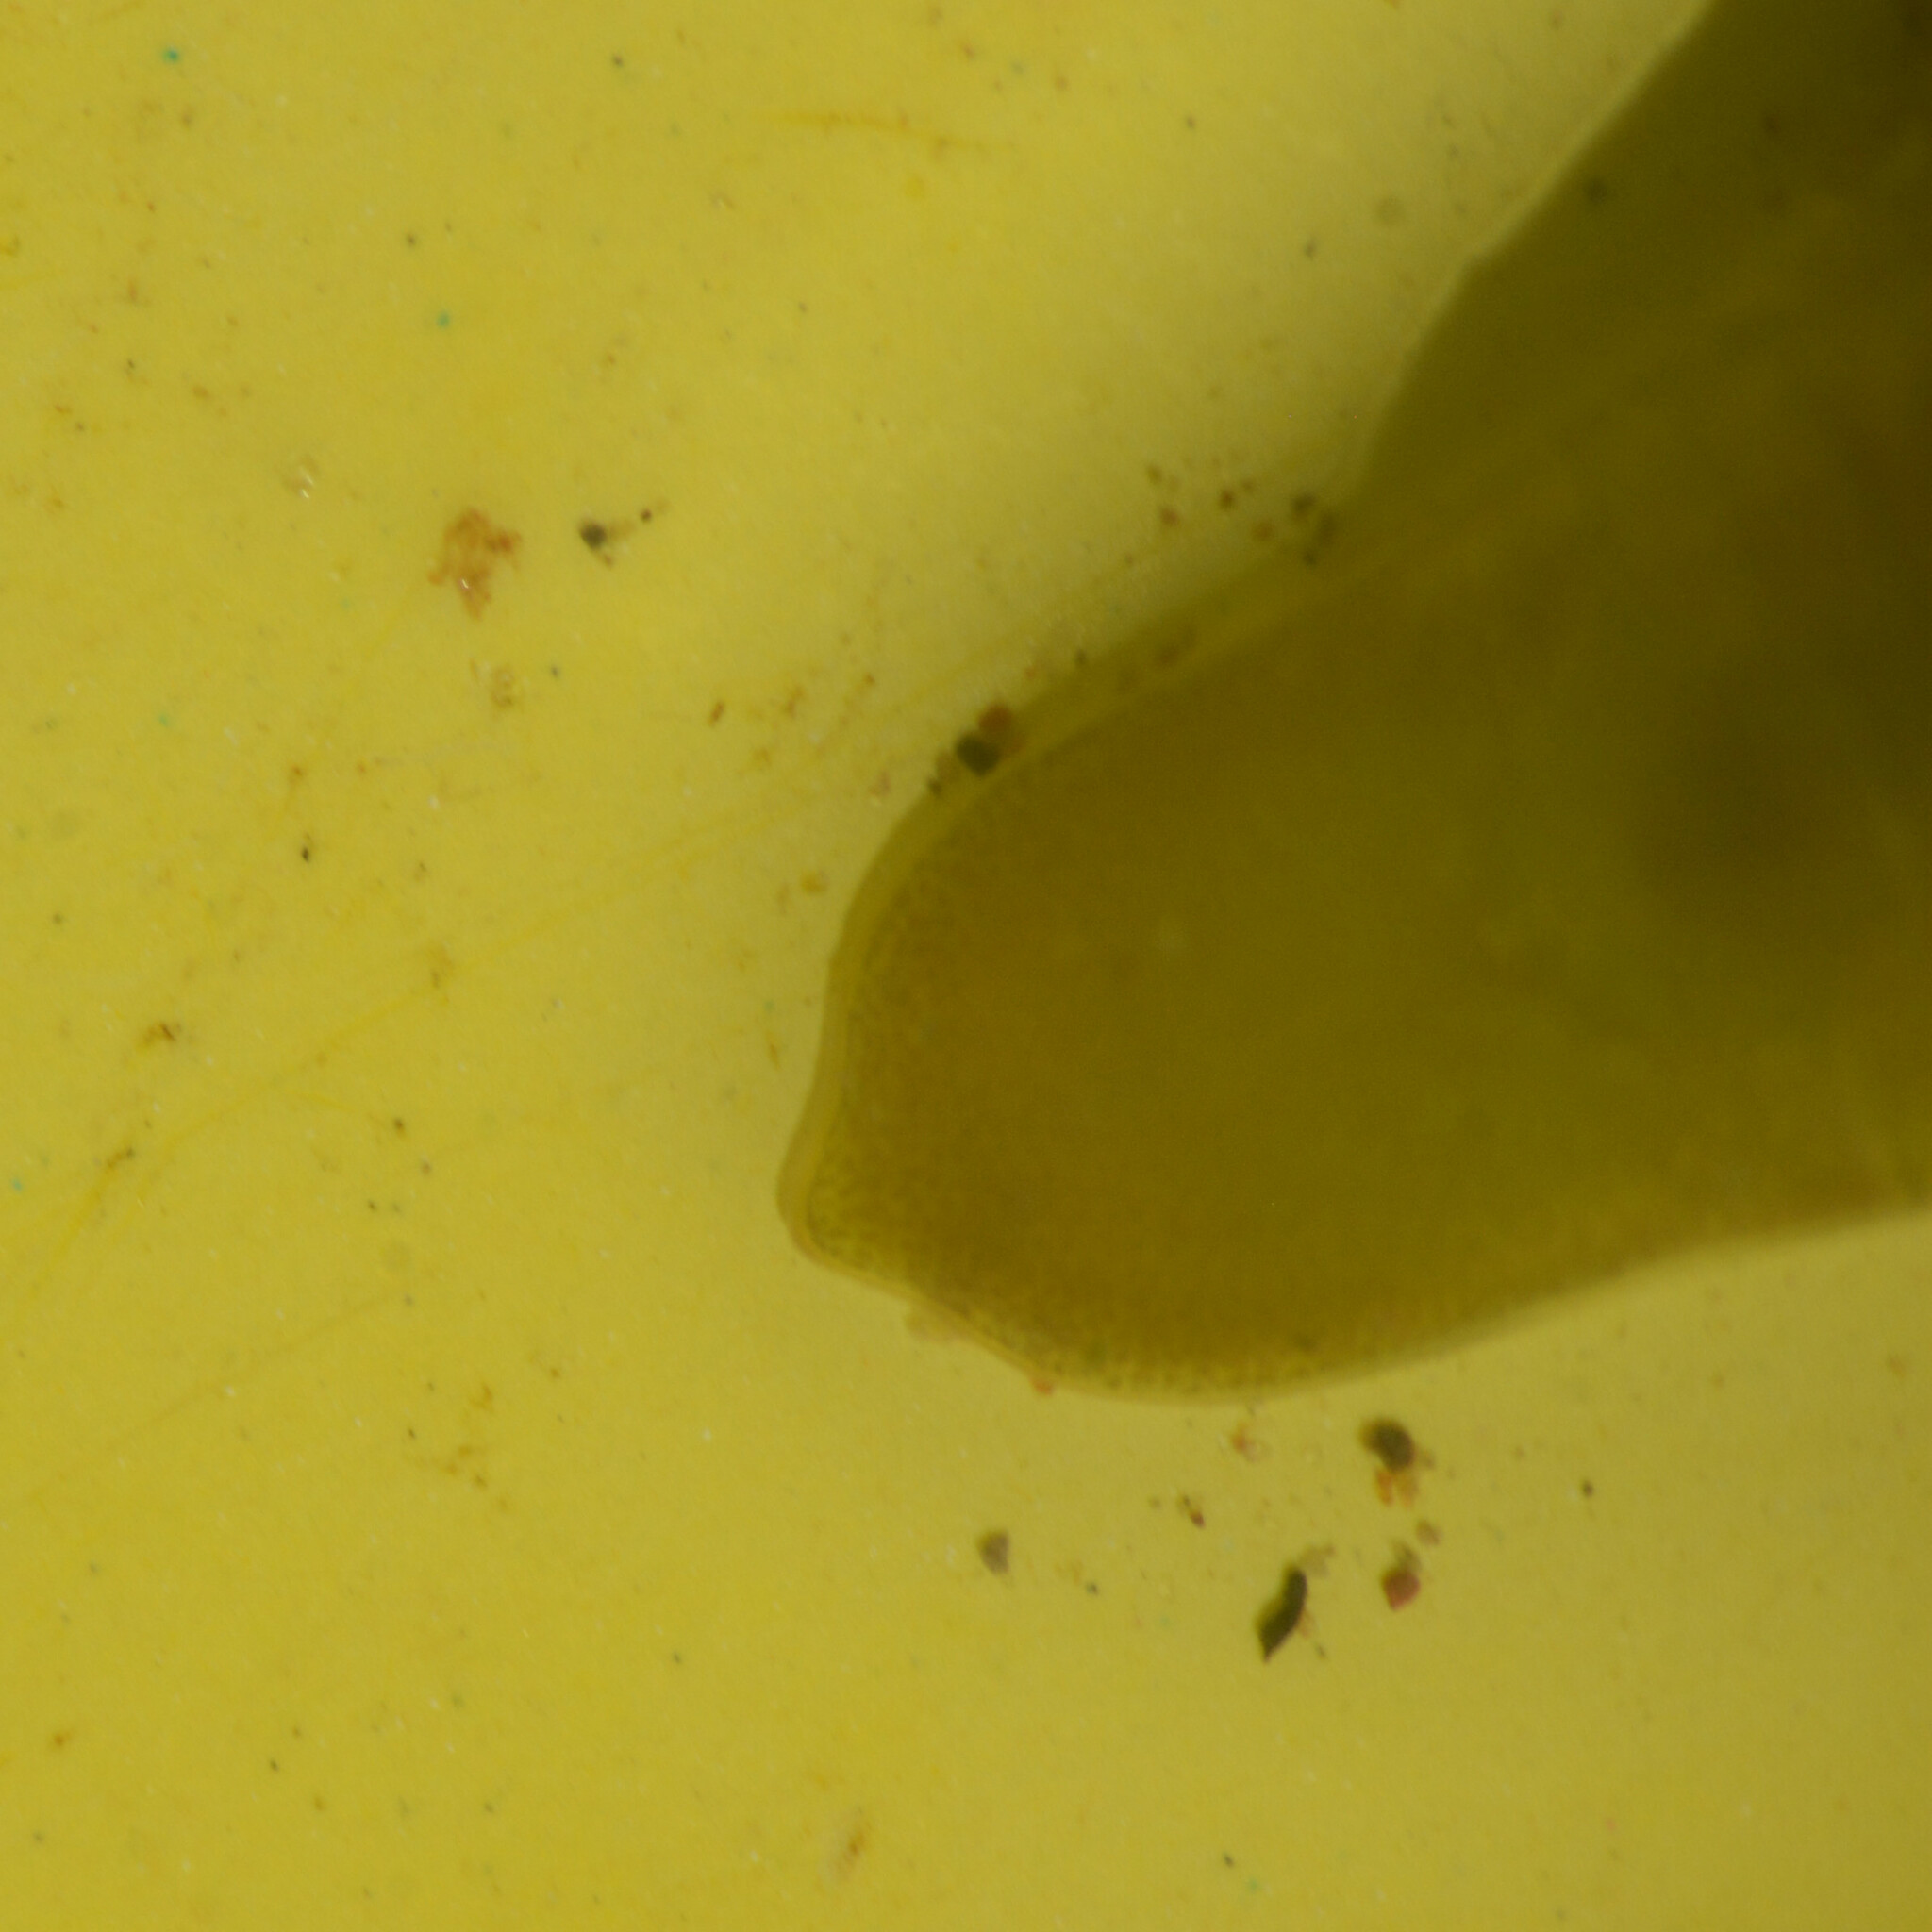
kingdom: Animalia
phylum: Arthropoda
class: Malacostraca
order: Isopoda
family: Idoteidae
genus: Idotea
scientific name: Idotea granulosa
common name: Granular marine isopod
